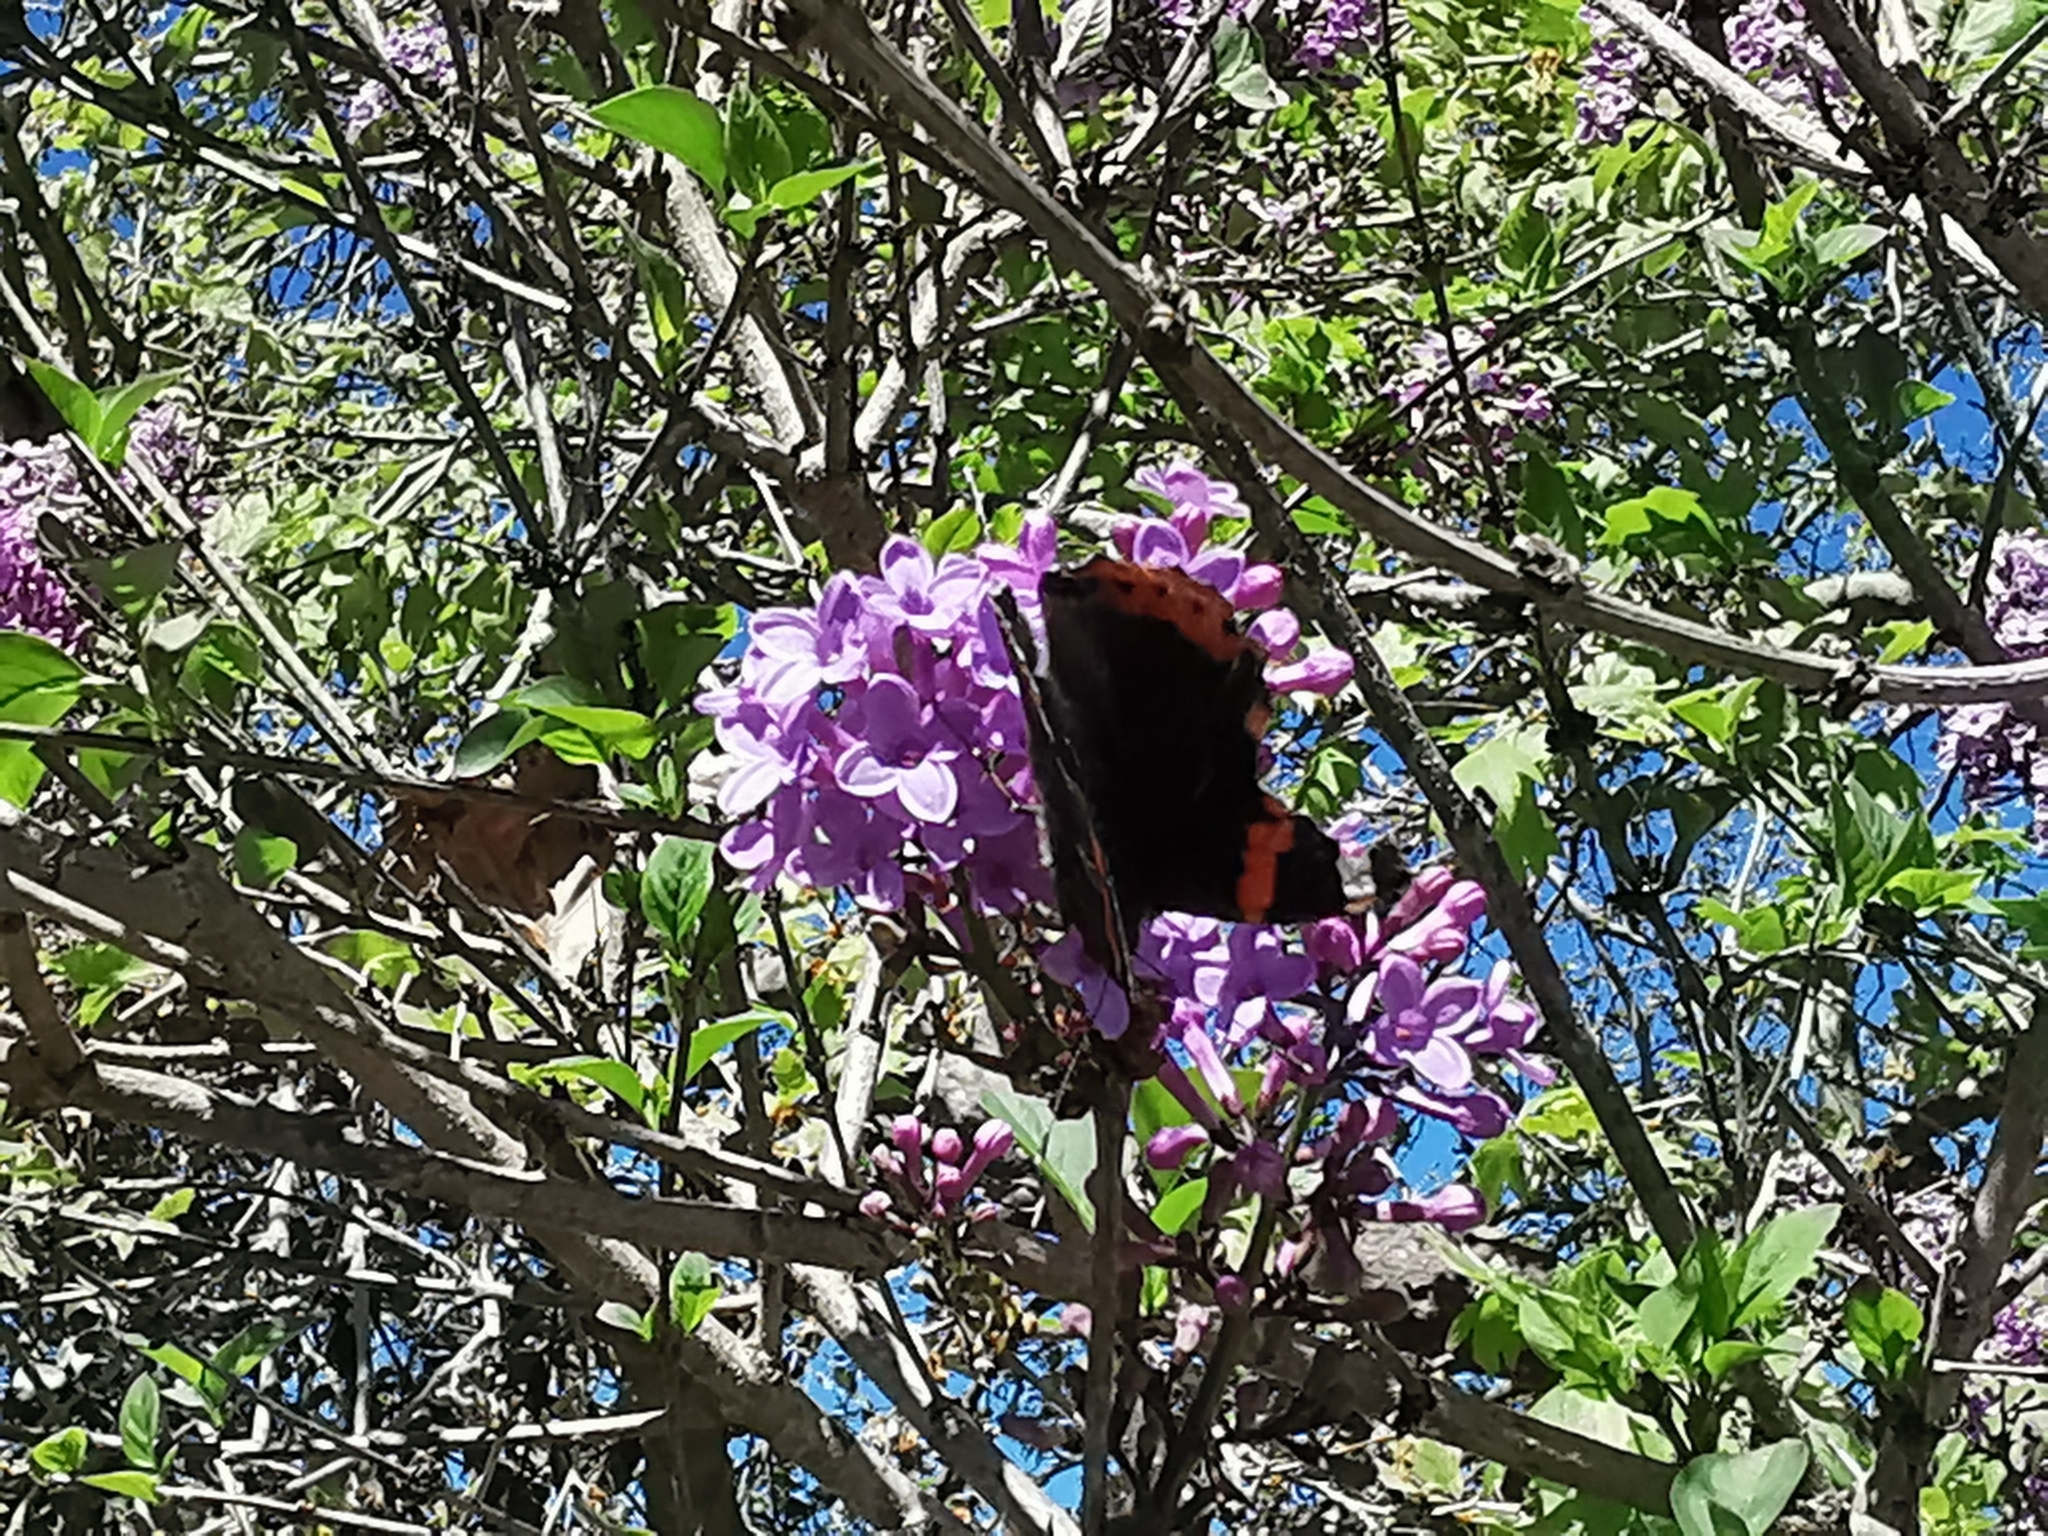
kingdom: Animalia
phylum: Arthropoda
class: Insecta
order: Lepidoptera
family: Nymphalidae
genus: Vanessa
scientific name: Vanessa atalanta
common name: Red admiral
